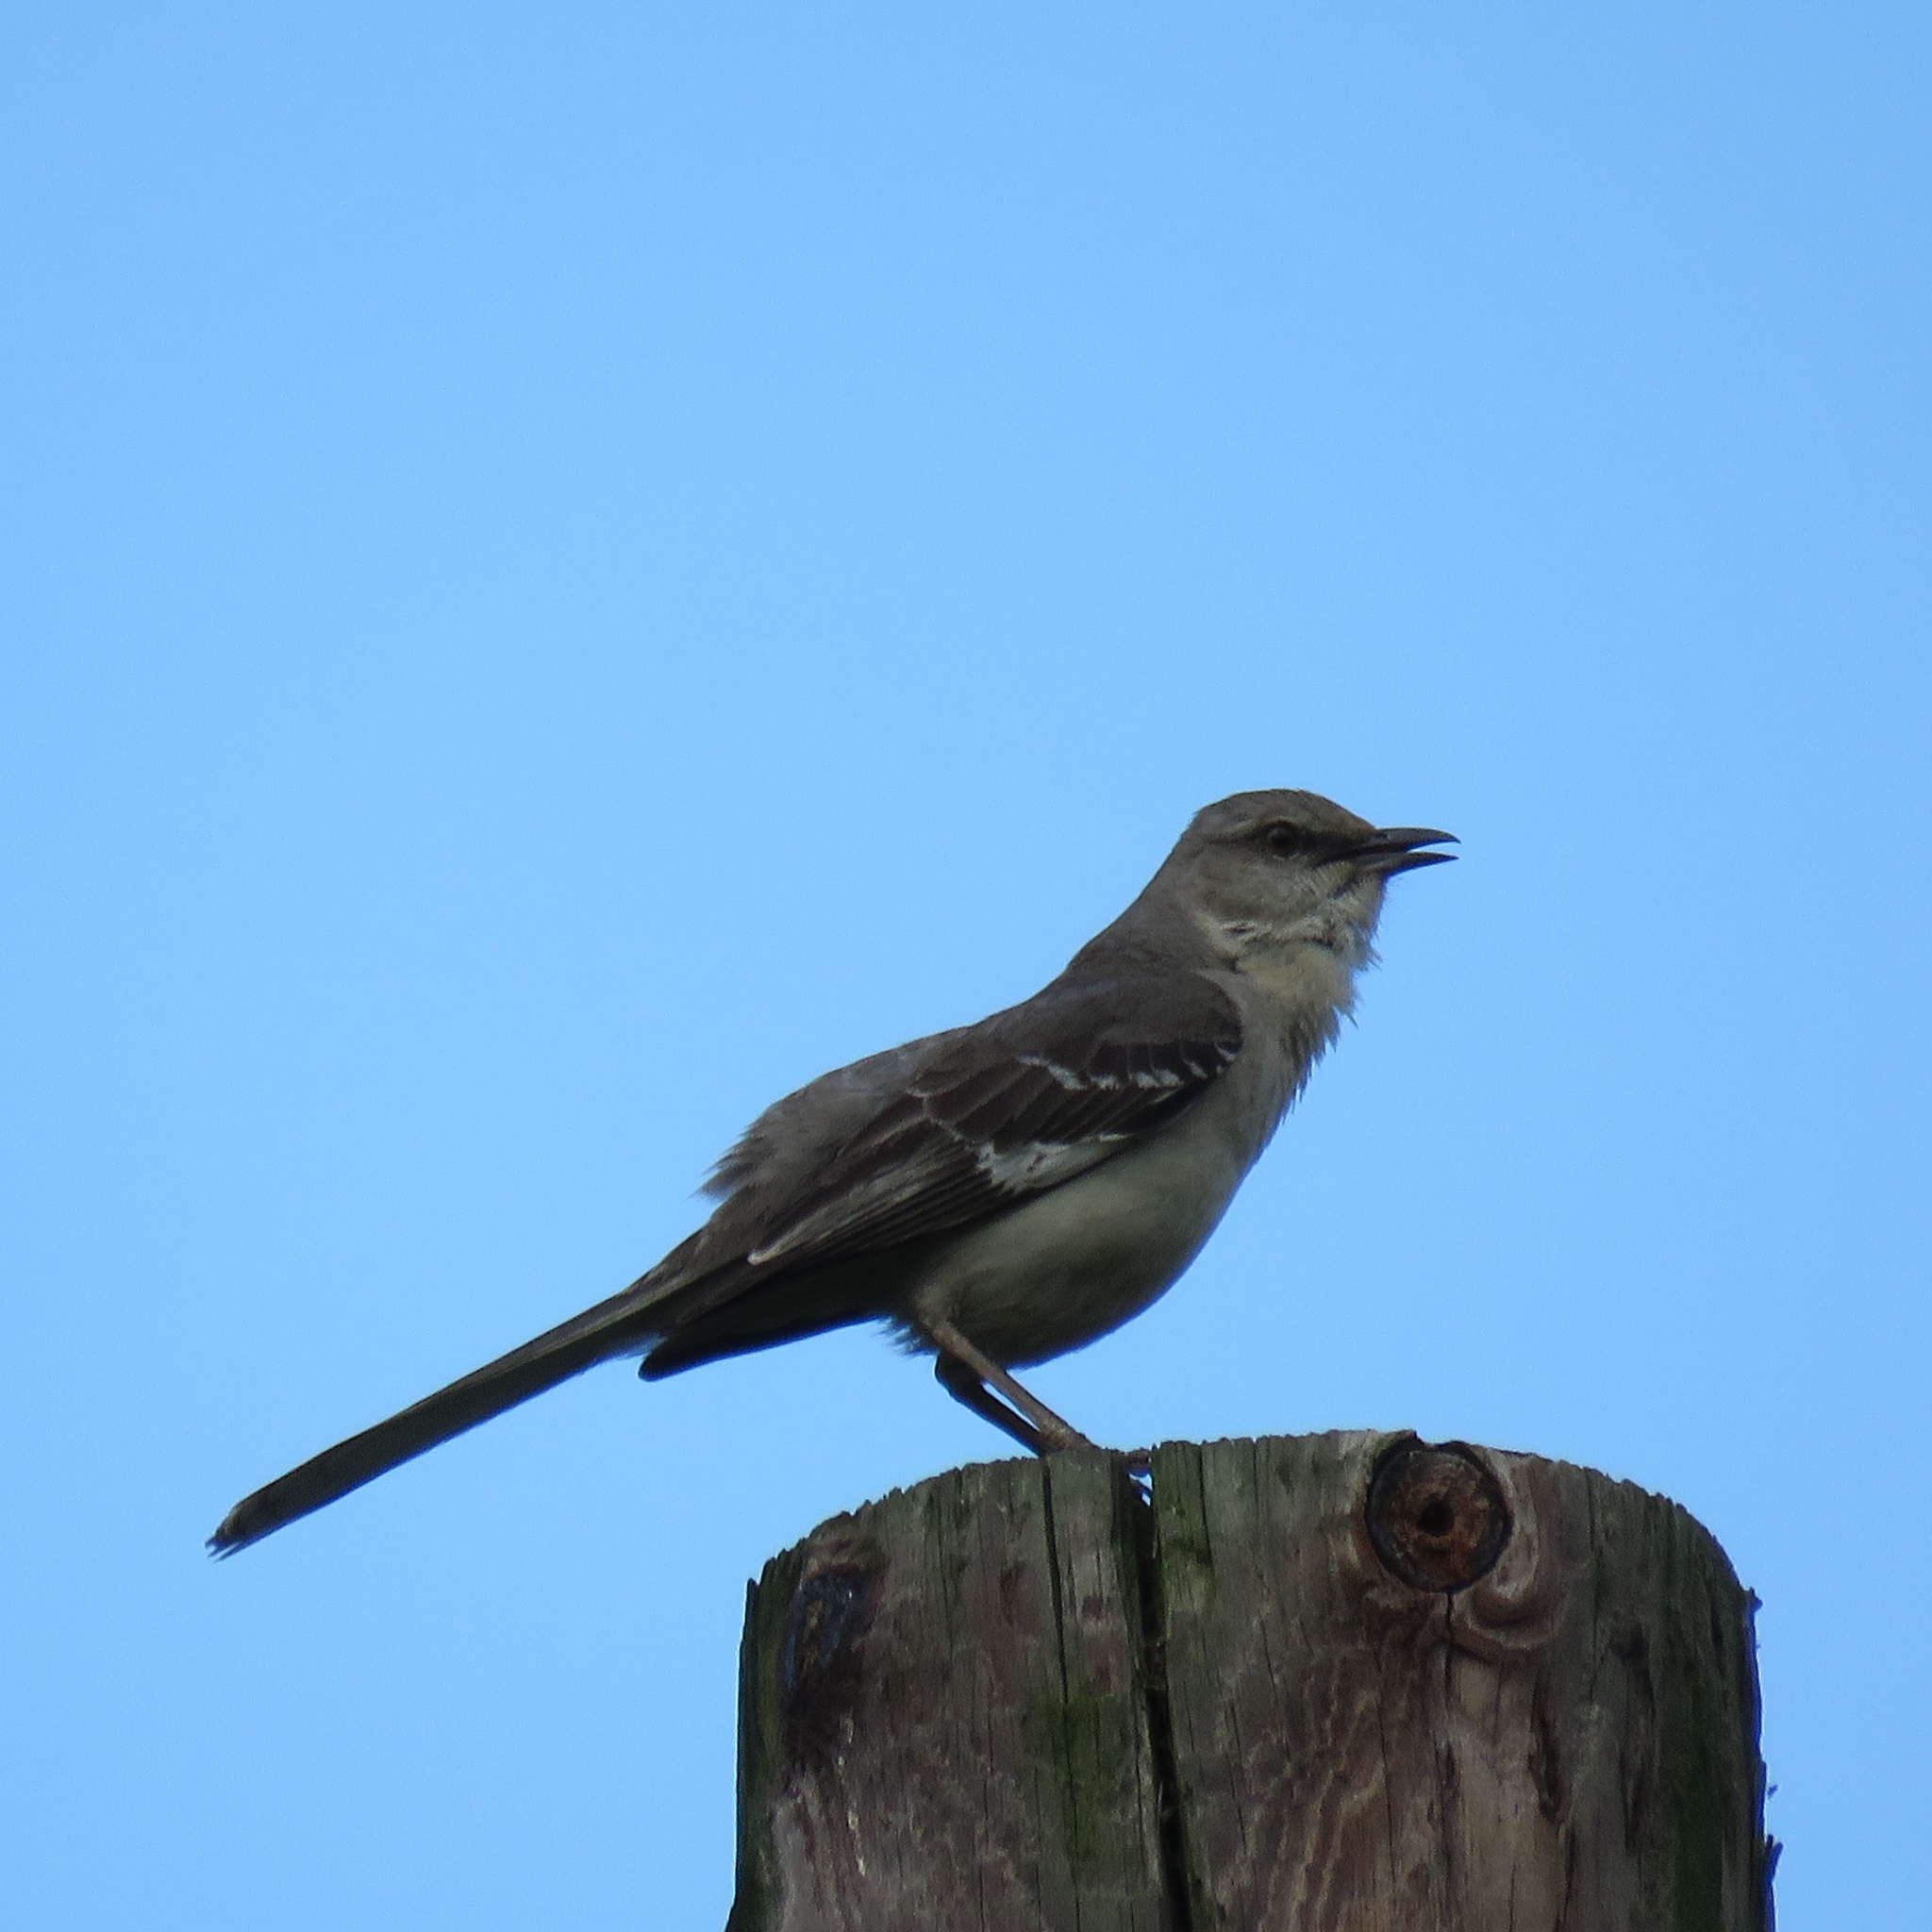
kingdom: Animalia
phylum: Chordata
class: Aves
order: Passeriformes
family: Mimidae
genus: Mimus
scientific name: Mimus polyglottos
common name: Northern mockingbird
